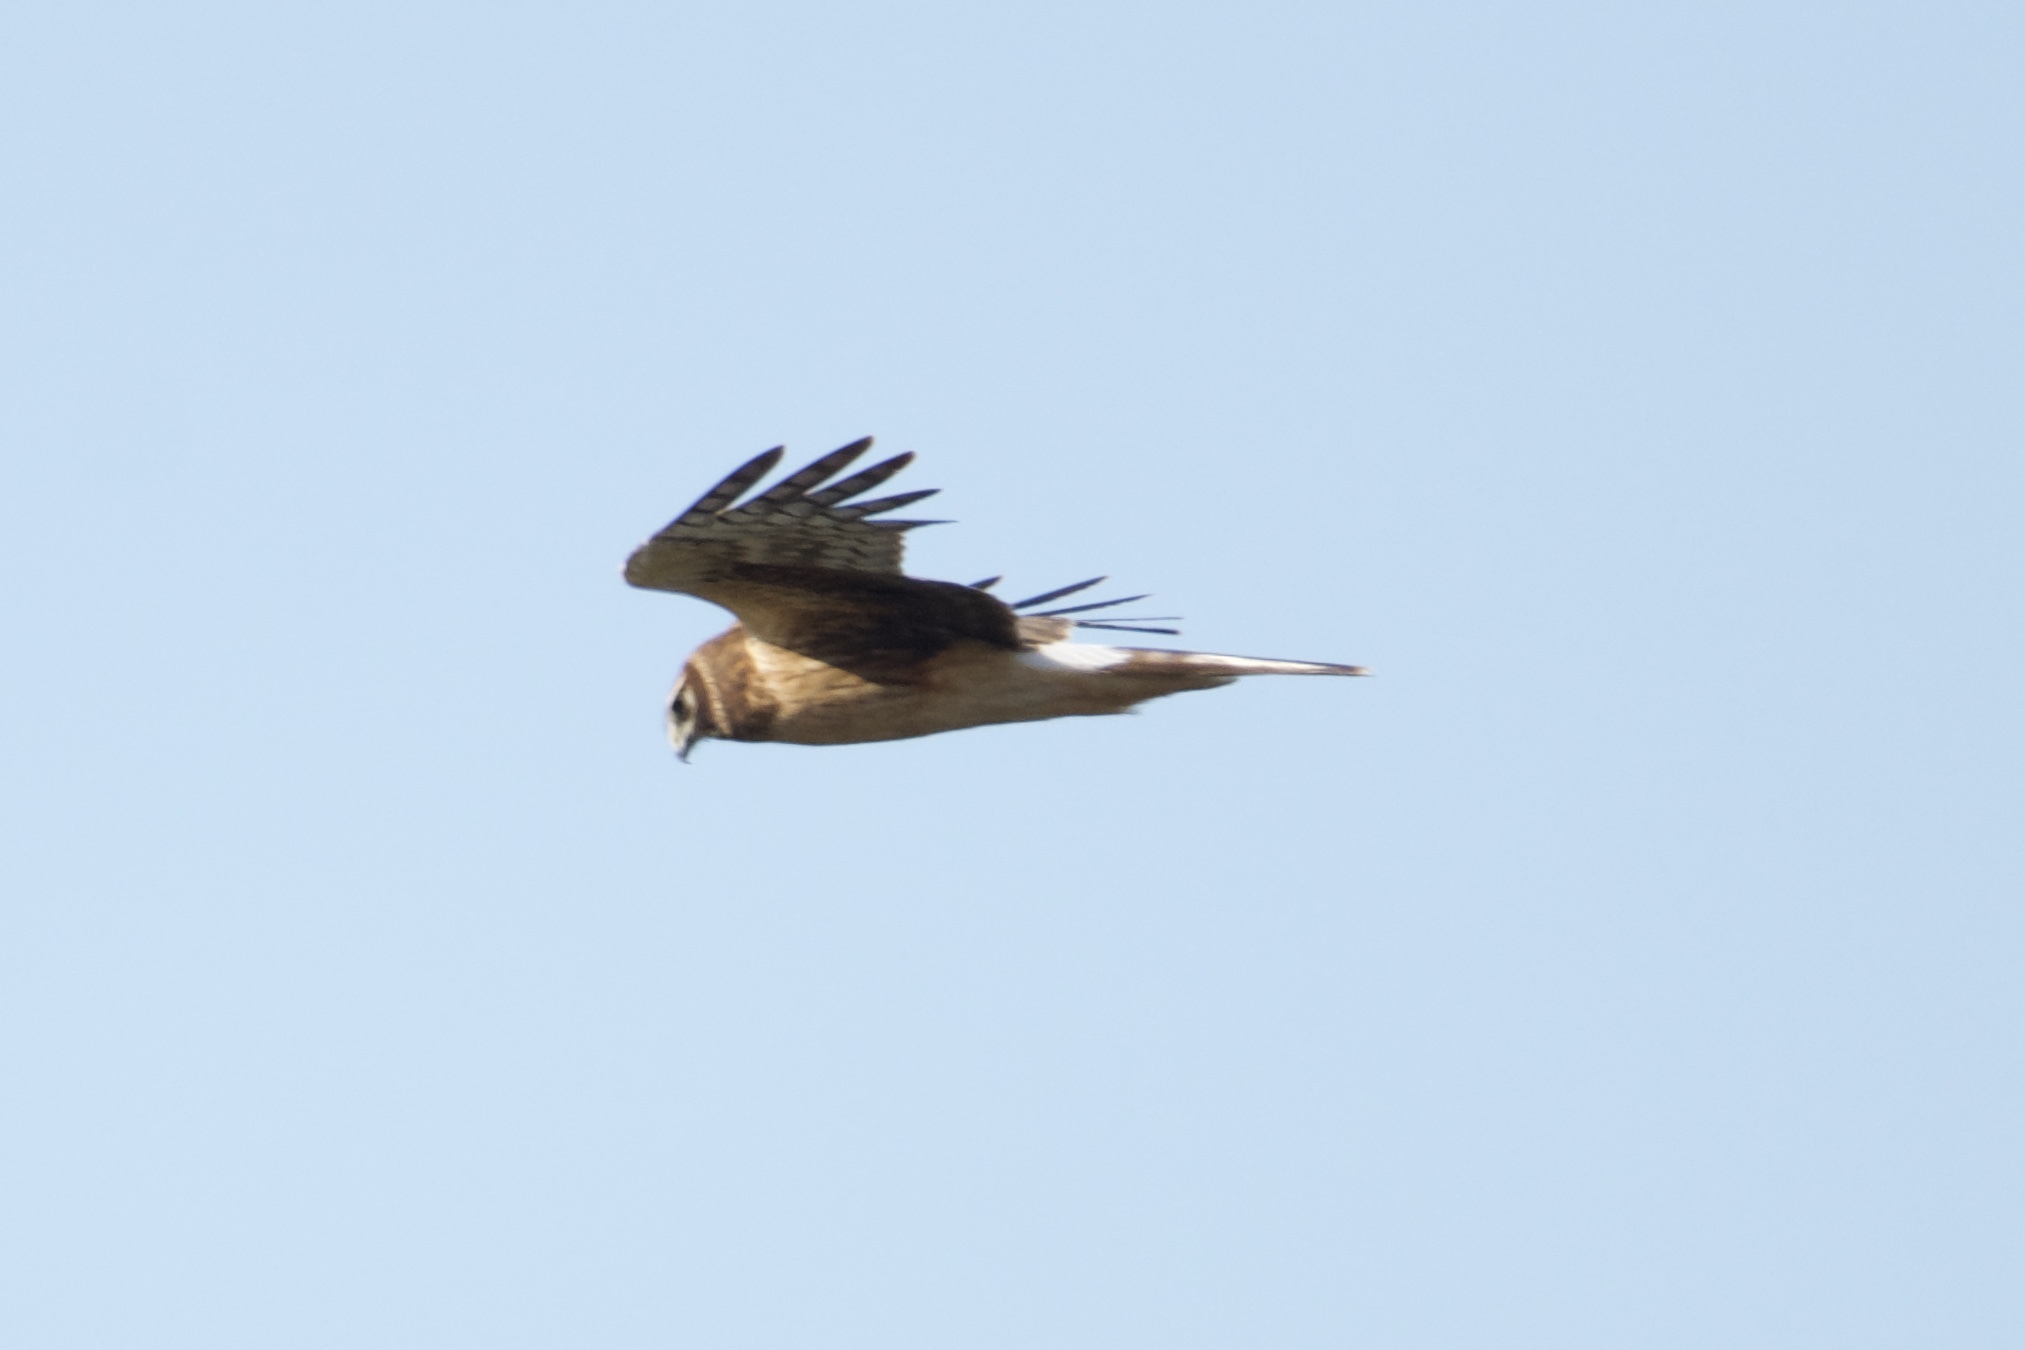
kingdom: Animalia
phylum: Chordata
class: Aves
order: Accipitriformes
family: Accipitridae
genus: Circus
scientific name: Circus cyaneus
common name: Hen harrier
